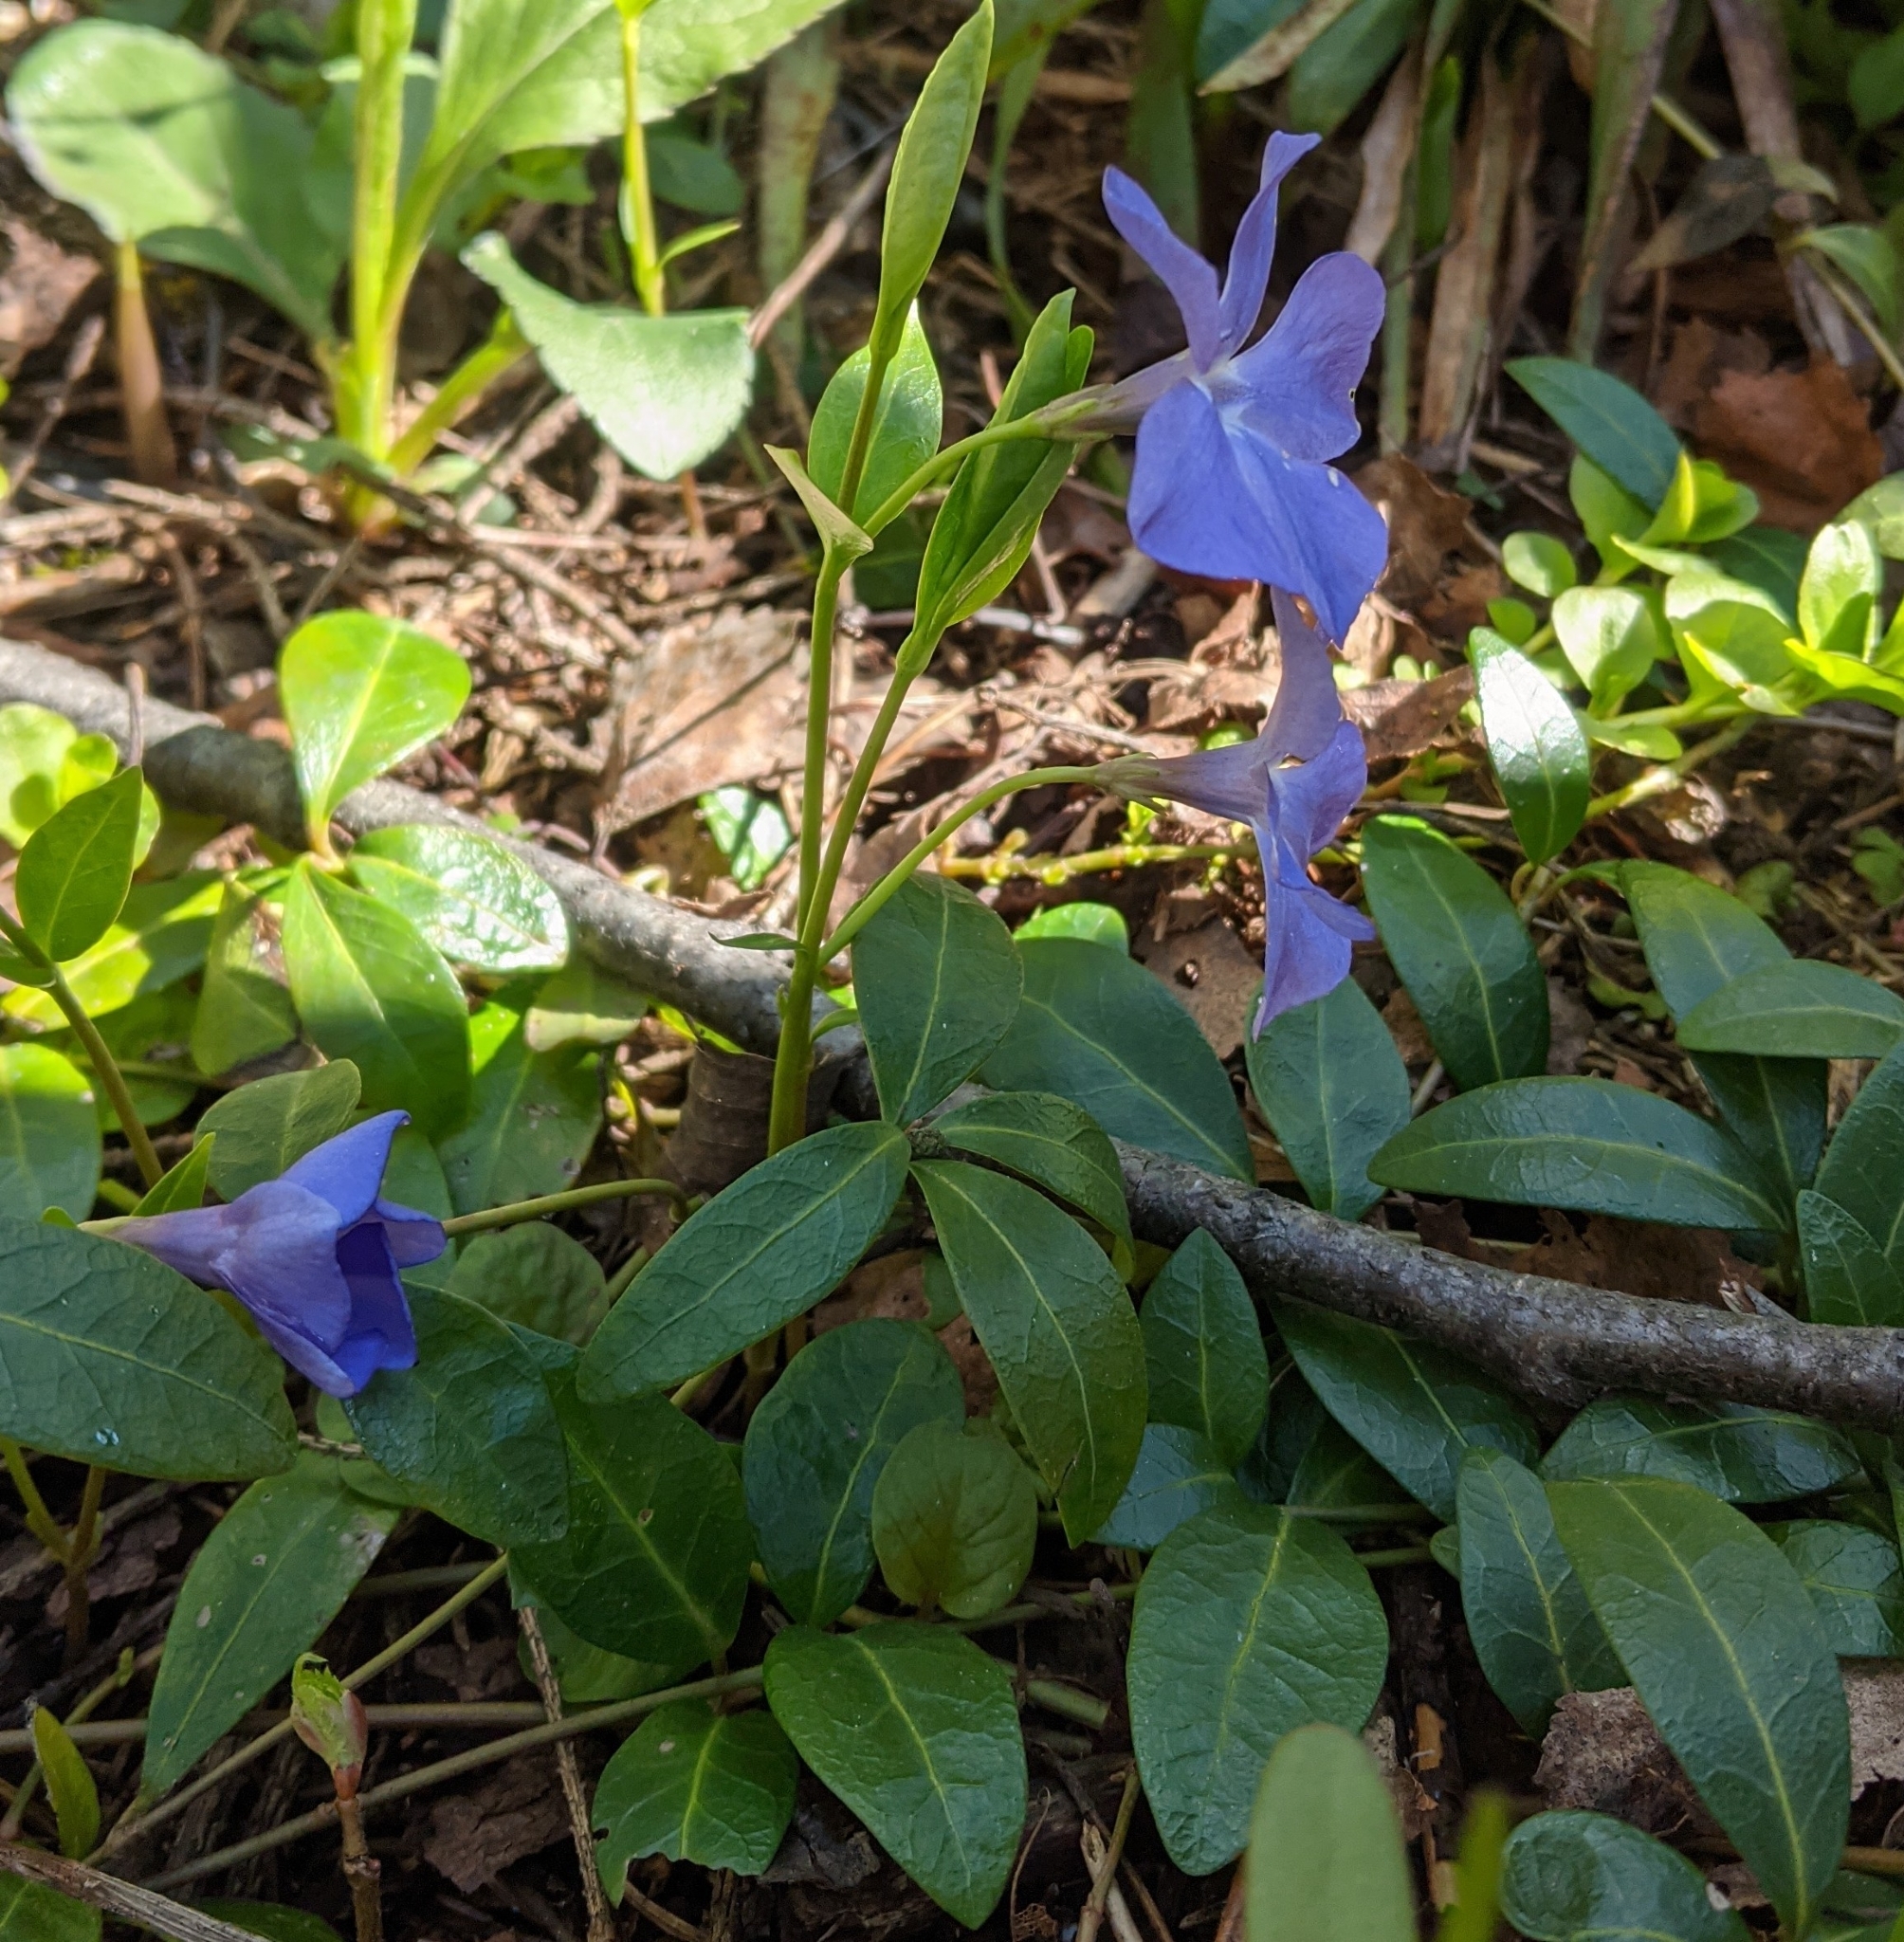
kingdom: Plantae
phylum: Tracheophyta
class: Magnoliopsida
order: Gentianales
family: Apocynaceae
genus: Vinca
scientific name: Vinca minor
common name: Lesser periwinkle
